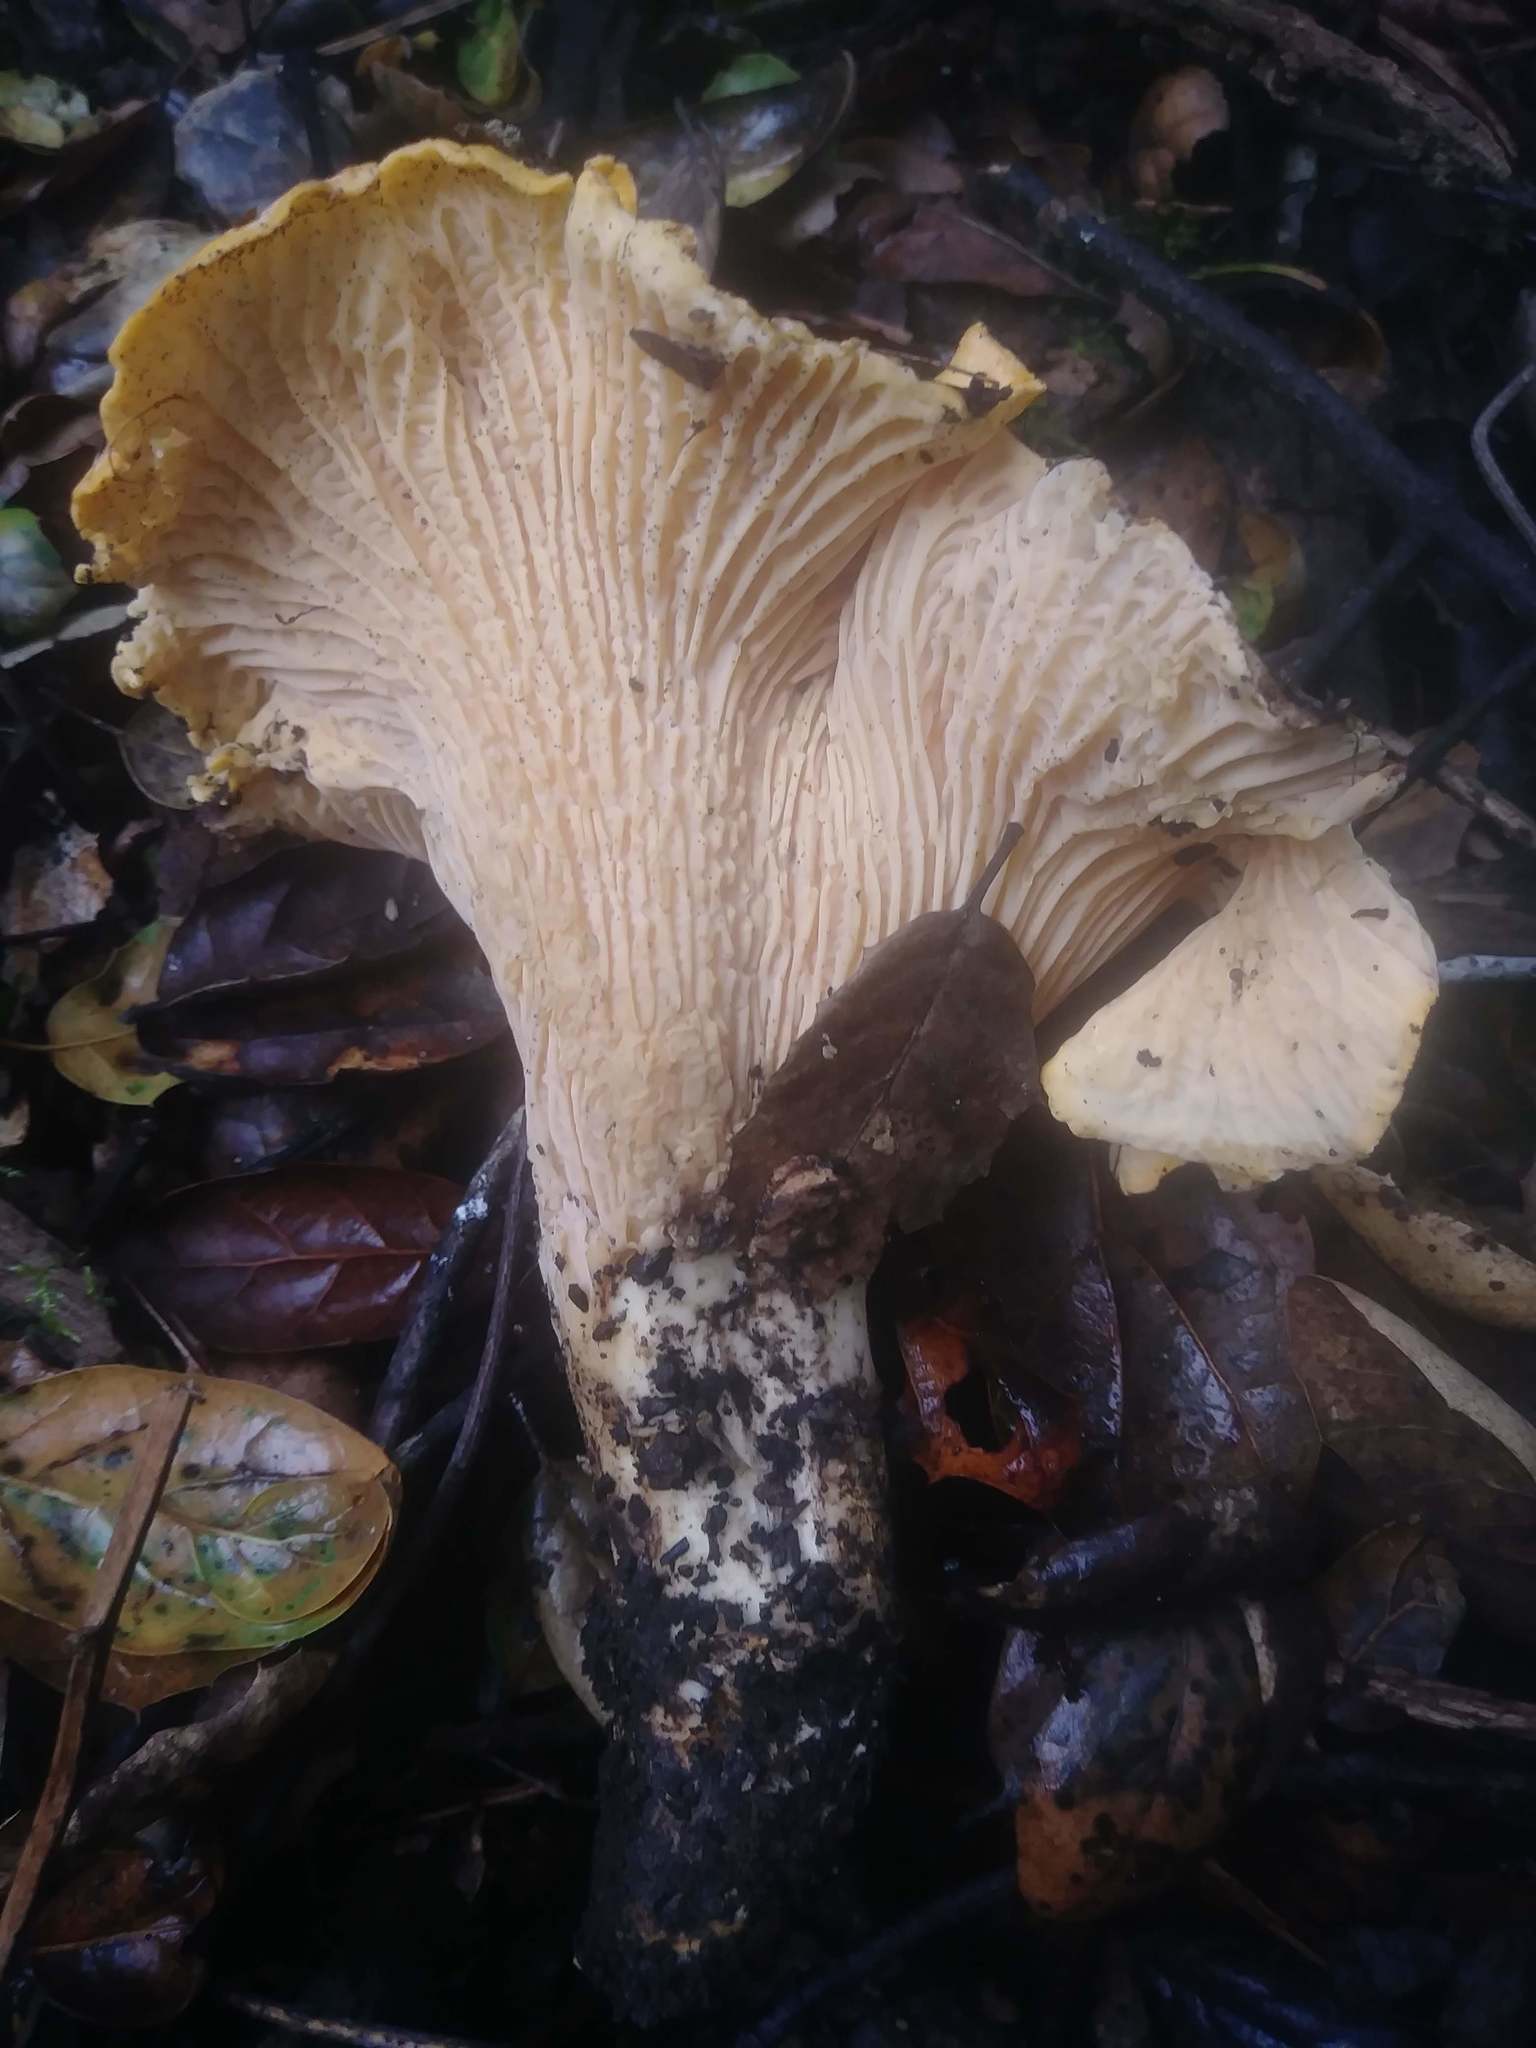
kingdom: Fungi
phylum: Basidiomycota
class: Agaricomycetes
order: Cantharellales
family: Hydnaceae
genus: Cantharellus
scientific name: Cantharellus californicus
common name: California golden chanterelle
